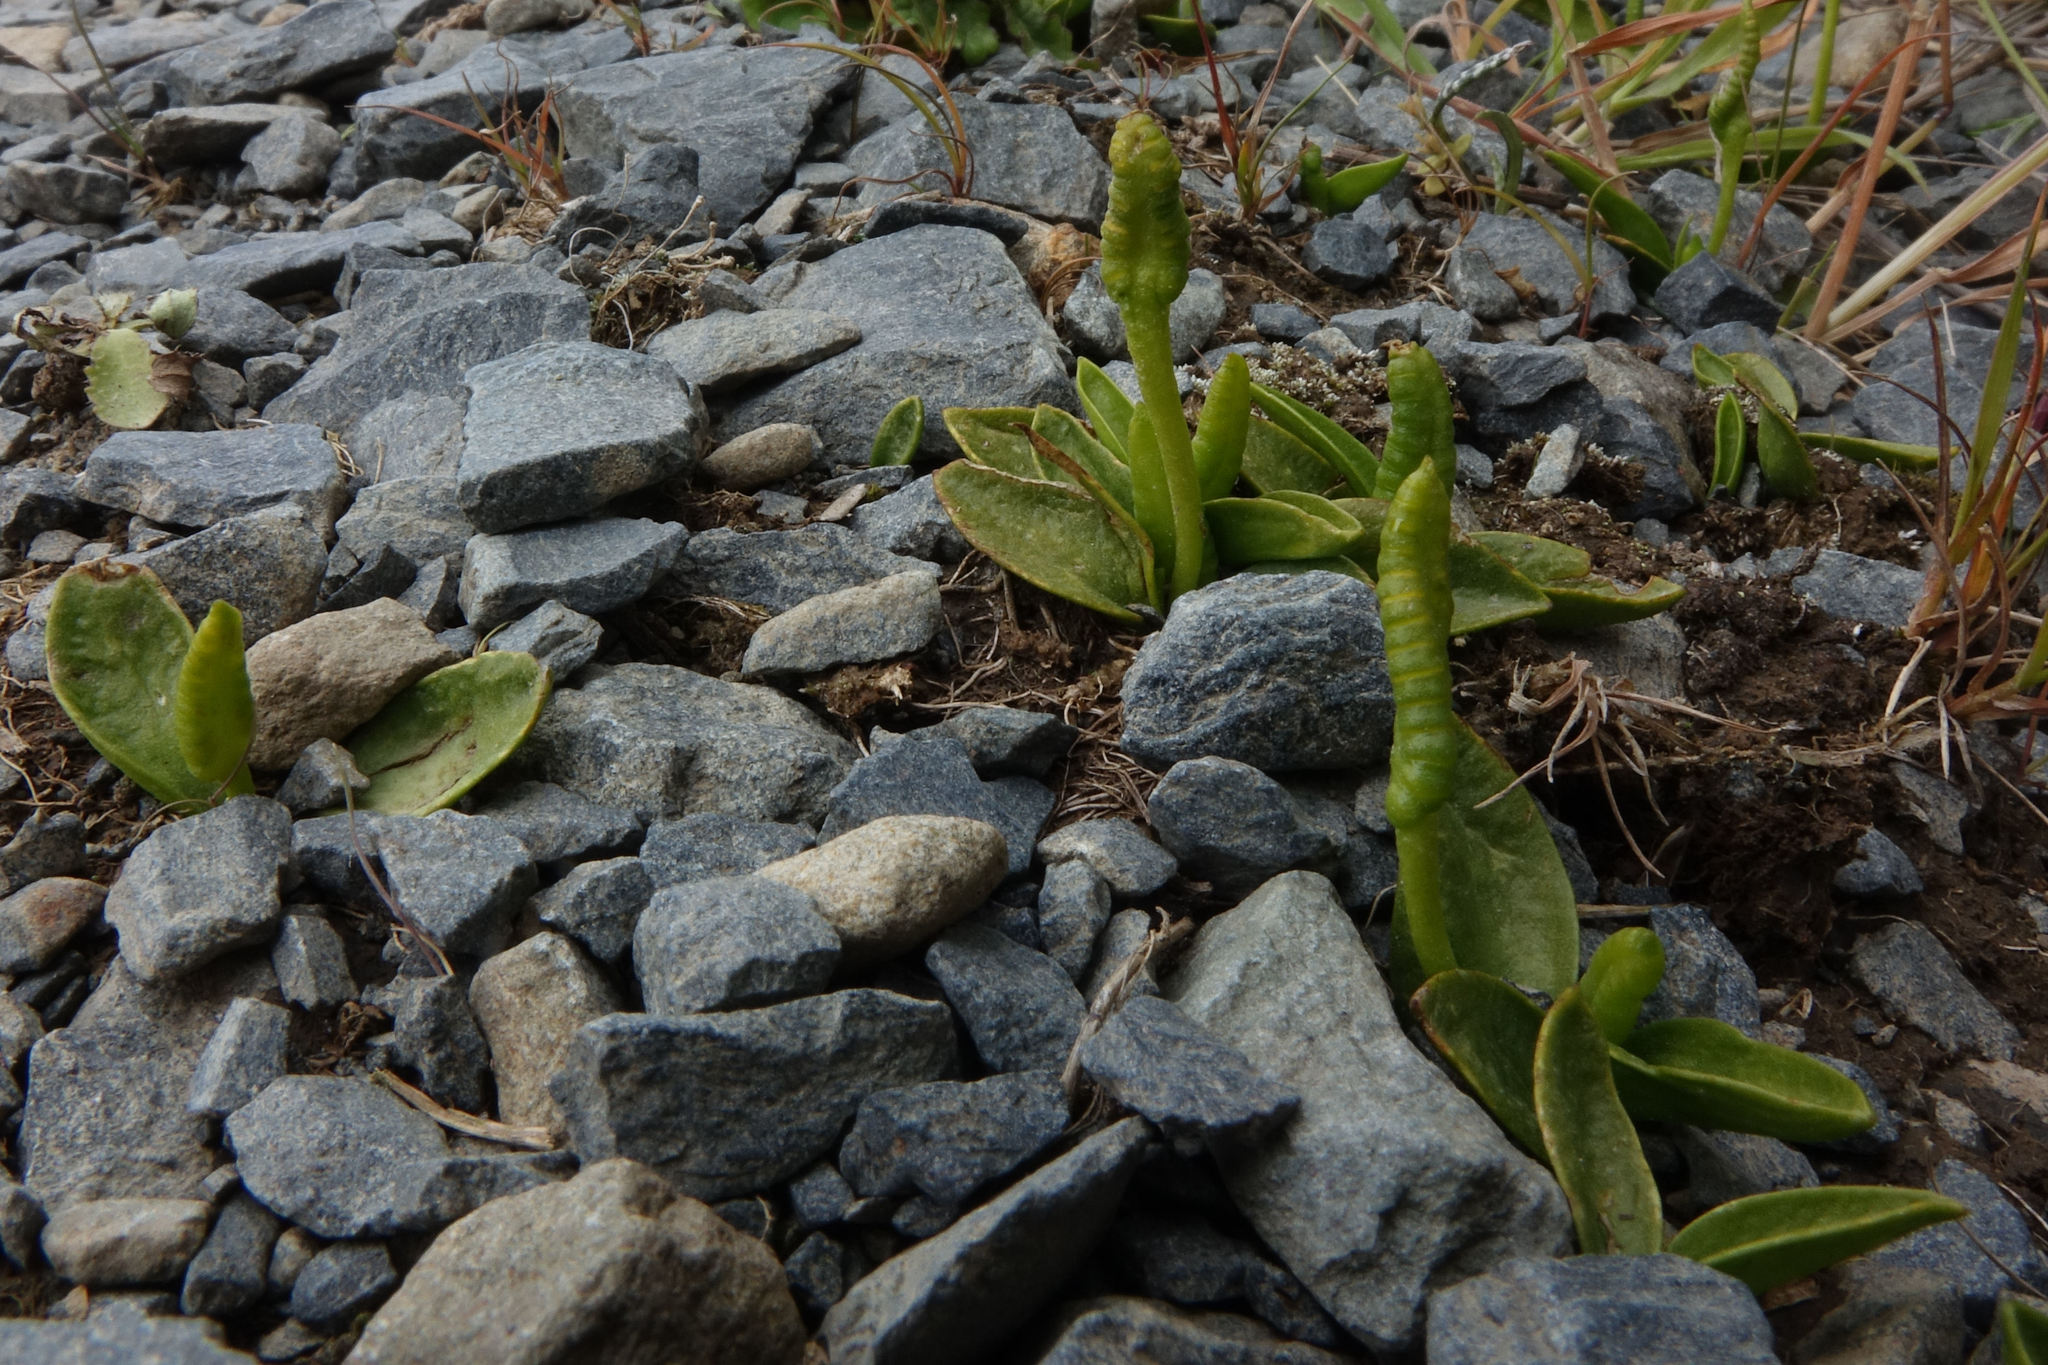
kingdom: Plantae
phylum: Tracheophyta
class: Polypodiopsida
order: Ophioglossales
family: Ophioglossaceae
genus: Ophioglossum
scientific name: Ophioglossum coriaceum
